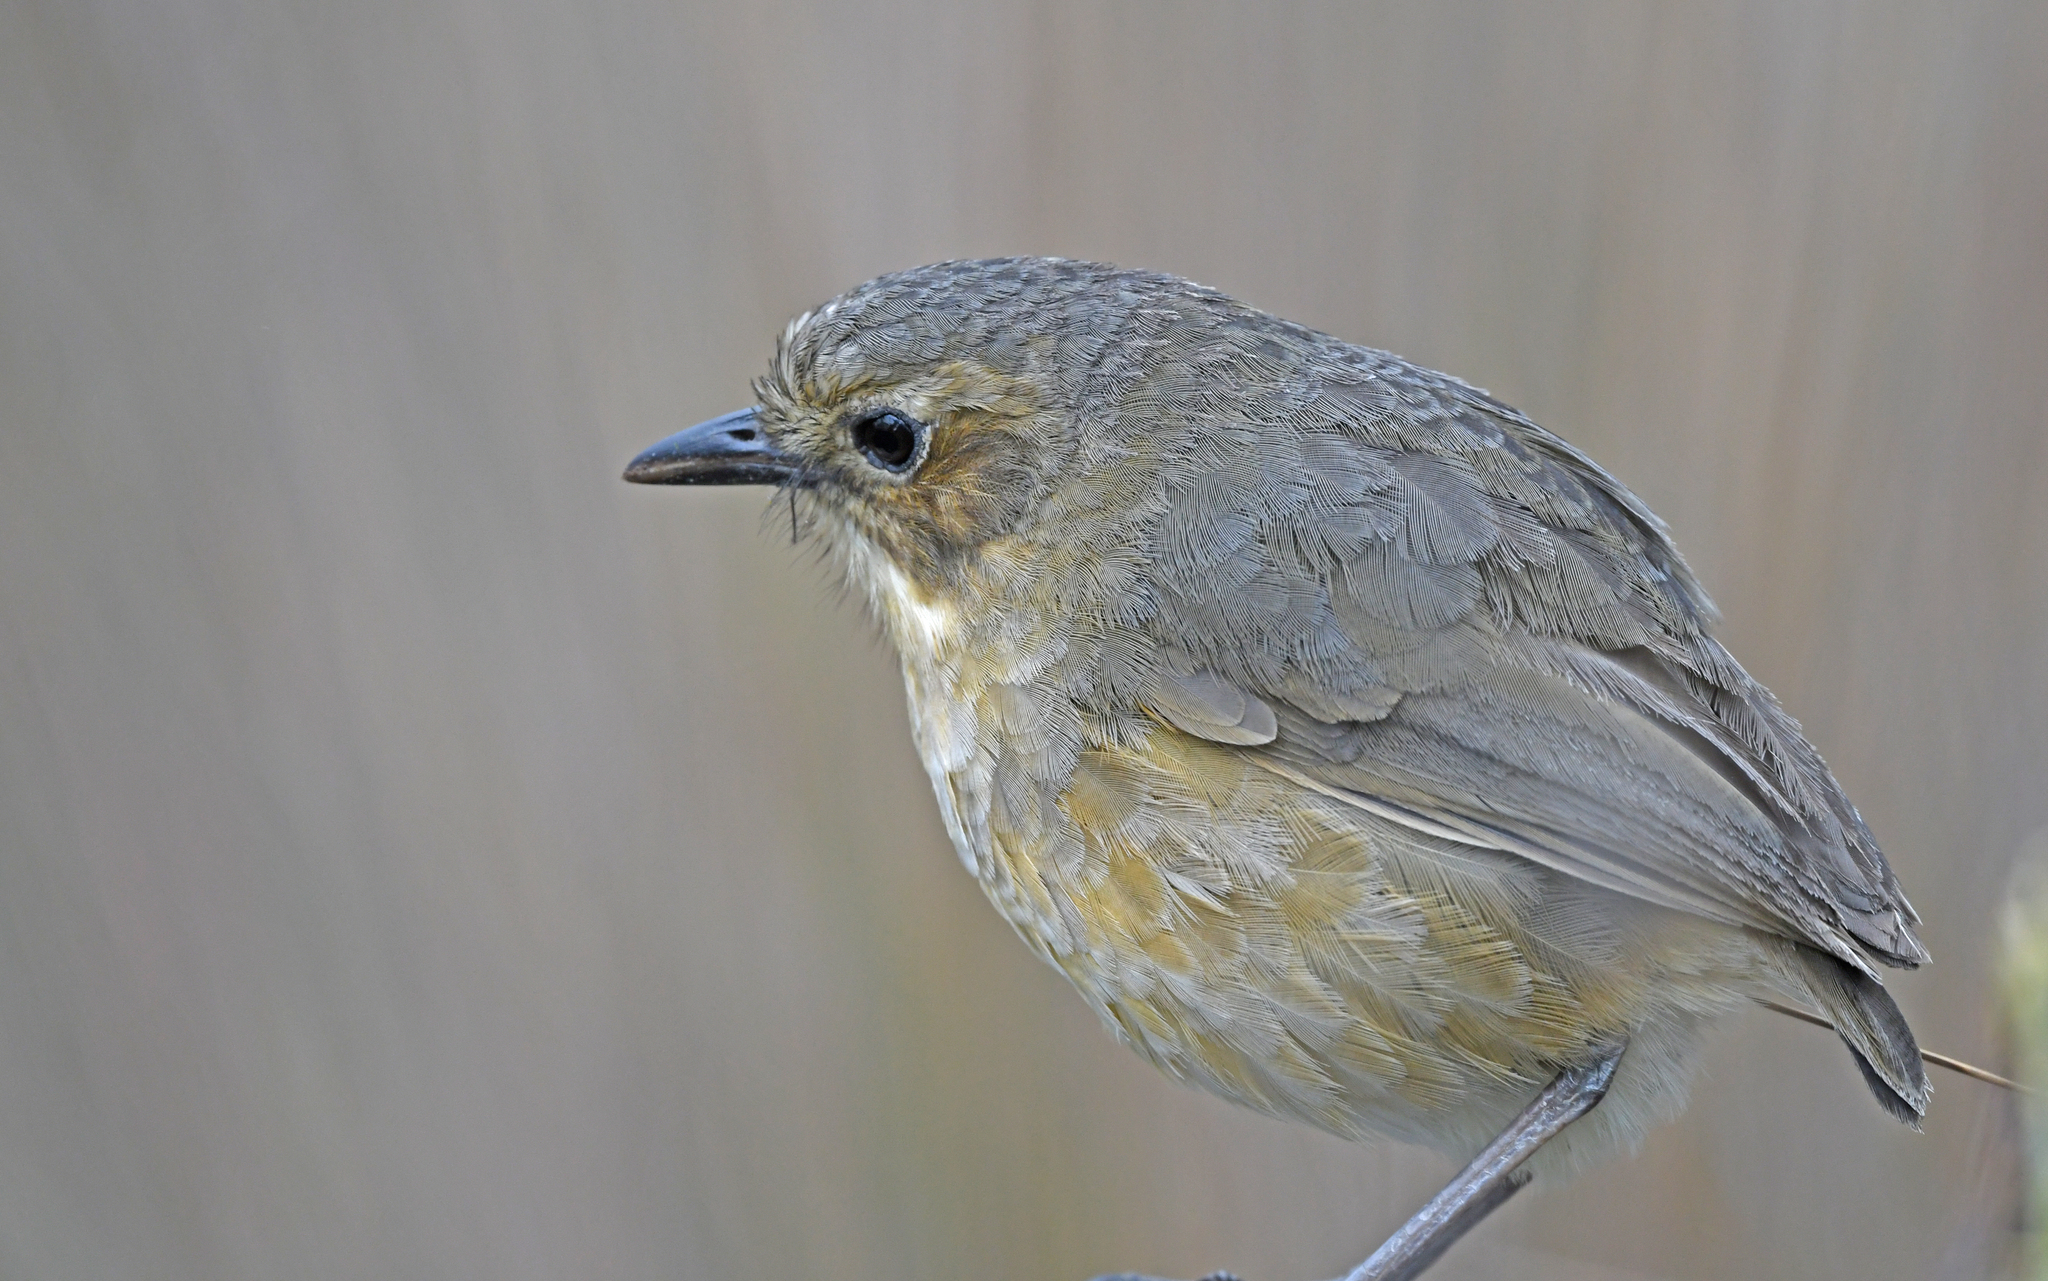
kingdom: Animalia
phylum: Chordata
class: Aves
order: Passeriformes
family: Grallariidae
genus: Grallaria
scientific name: Grallaria quitensis
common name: Tawny antpitta
